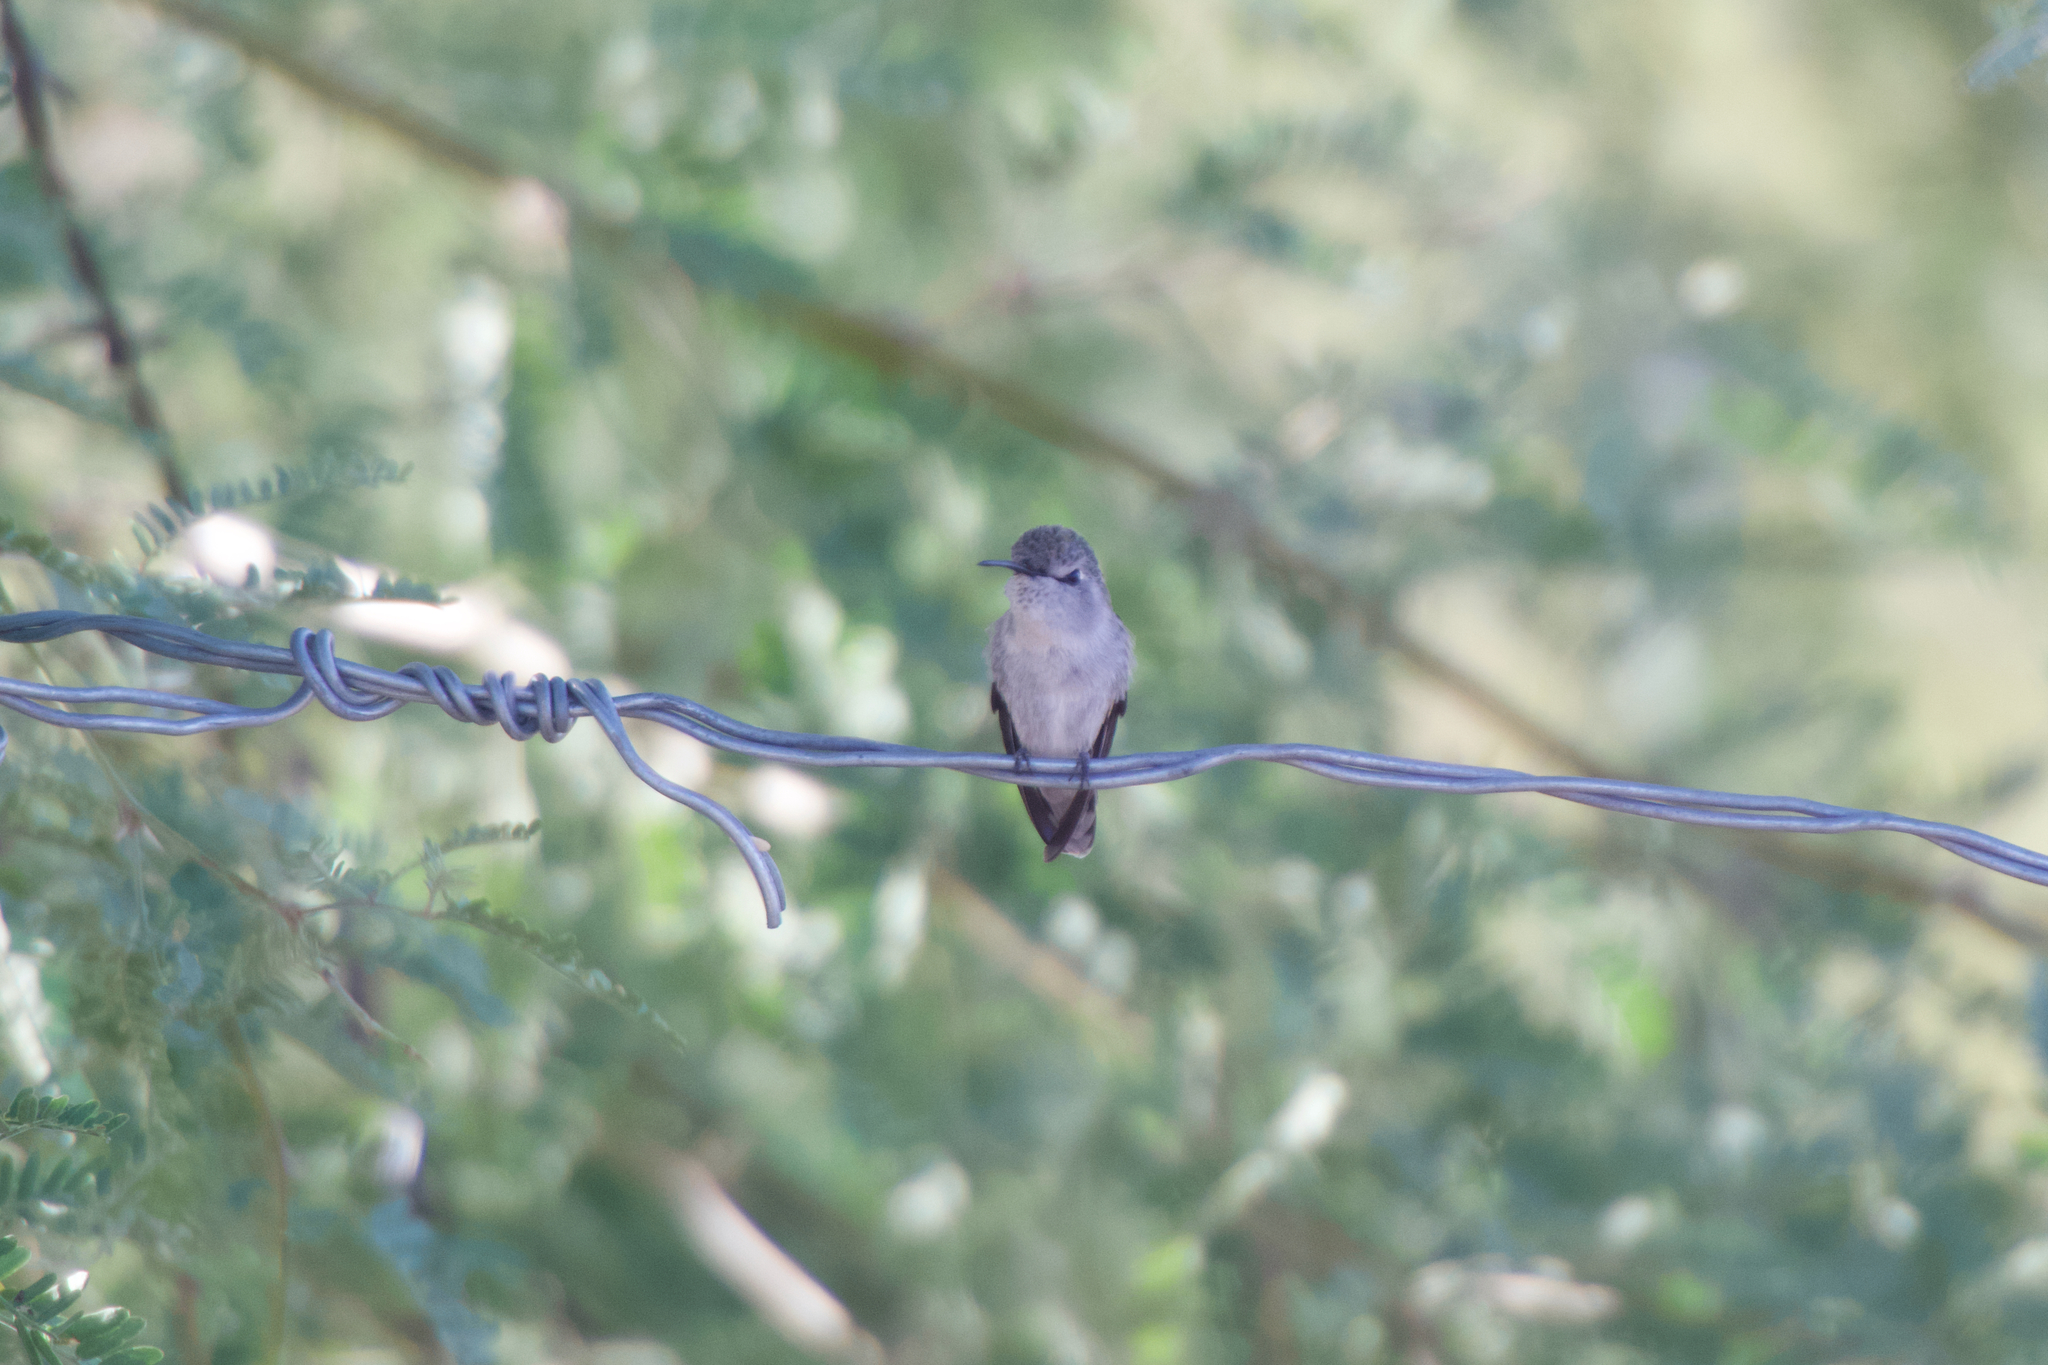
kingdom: Animalia
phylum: Chordata
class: Aves
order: Apodiformes
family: Trochilidae
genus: Calypte
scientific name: Calypte costae
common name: Costa's hummingbird
